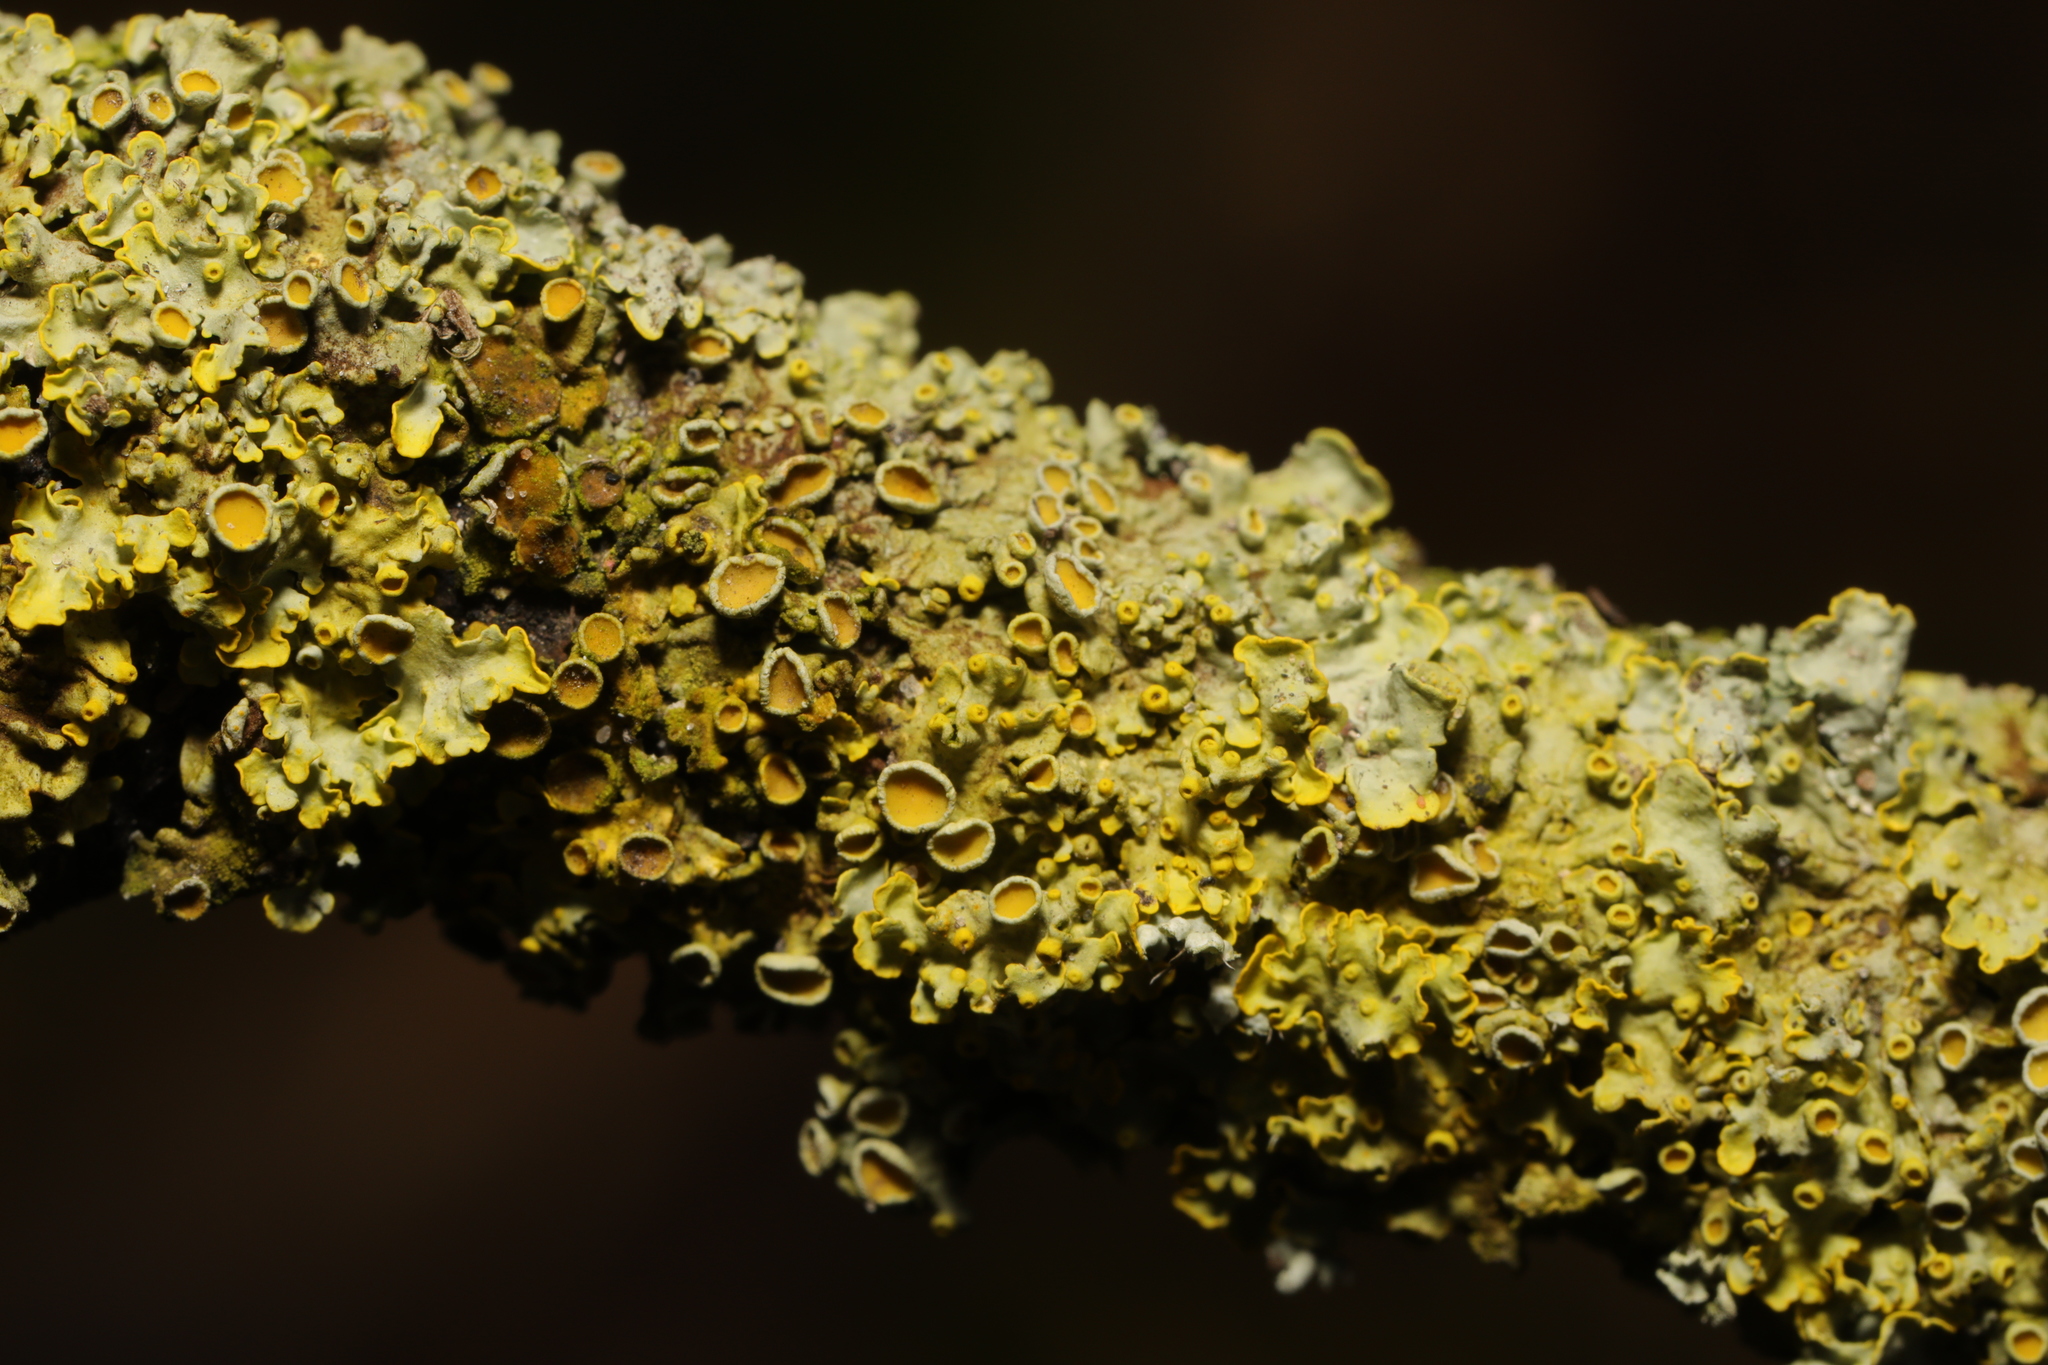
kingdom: Fungi
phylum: Ascomycota
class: Lecanoromycetes
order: Teloschistales
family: Teloschistaceae
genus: Xanthoria
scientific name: Xanthoria parietina
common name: Common orange lichen
